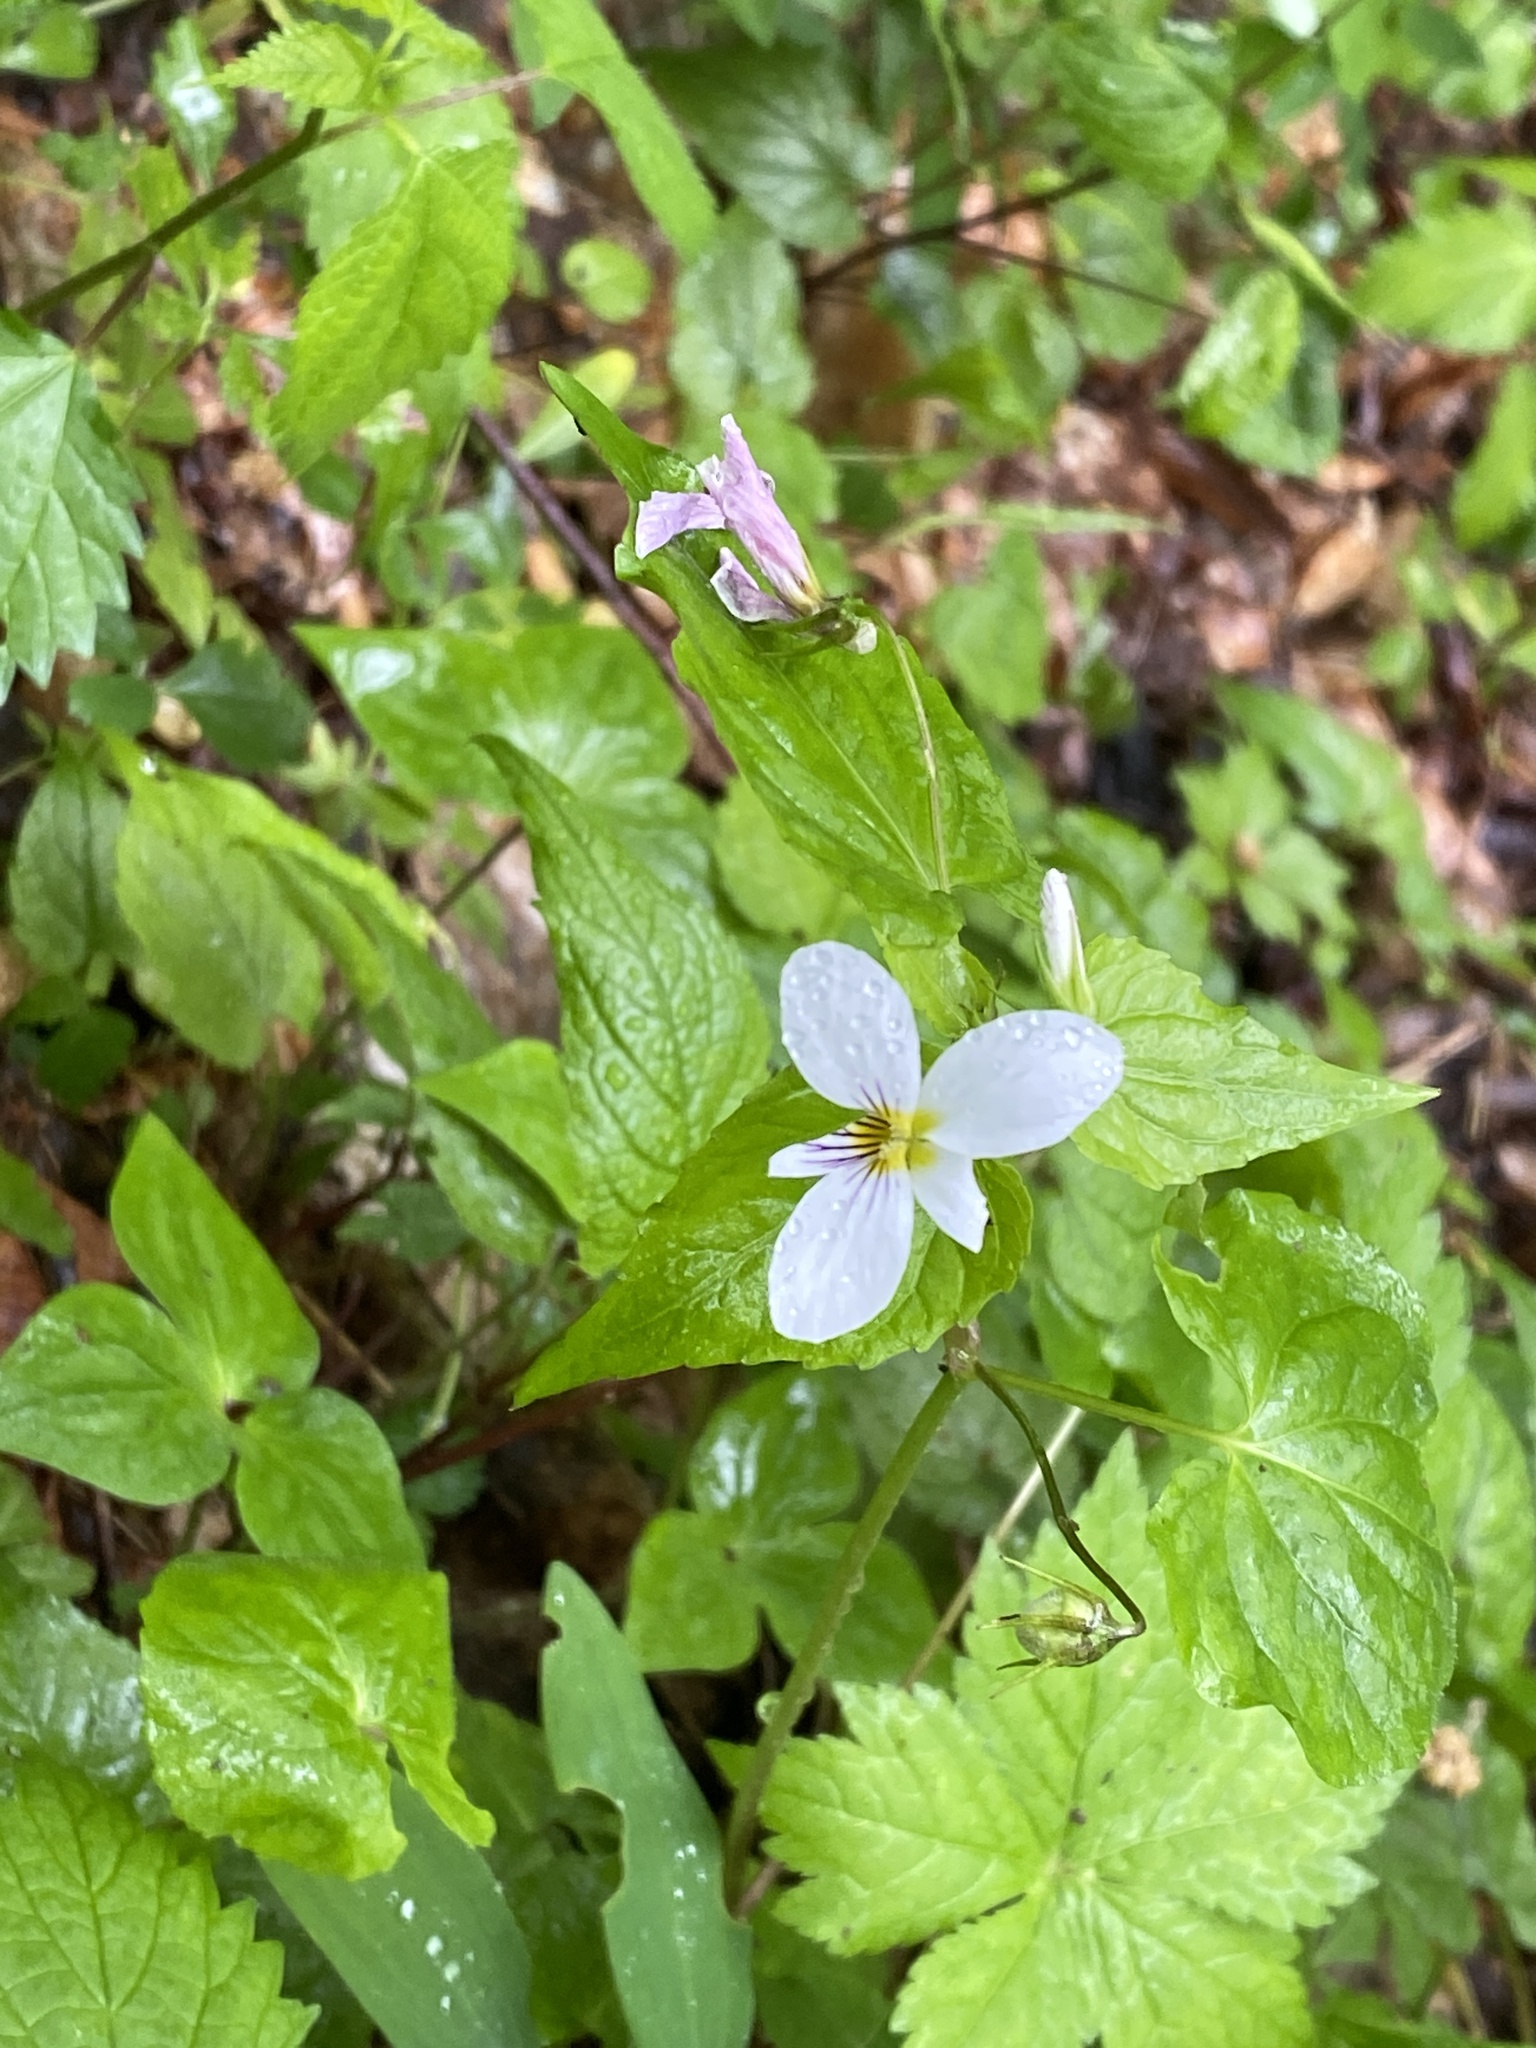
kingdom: Plantae
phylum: Tracheophyta
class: Magnoliopsida
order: Malpighiales
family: Violaceae
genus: Viola
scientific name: Viola canadensis
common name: Canada violet
